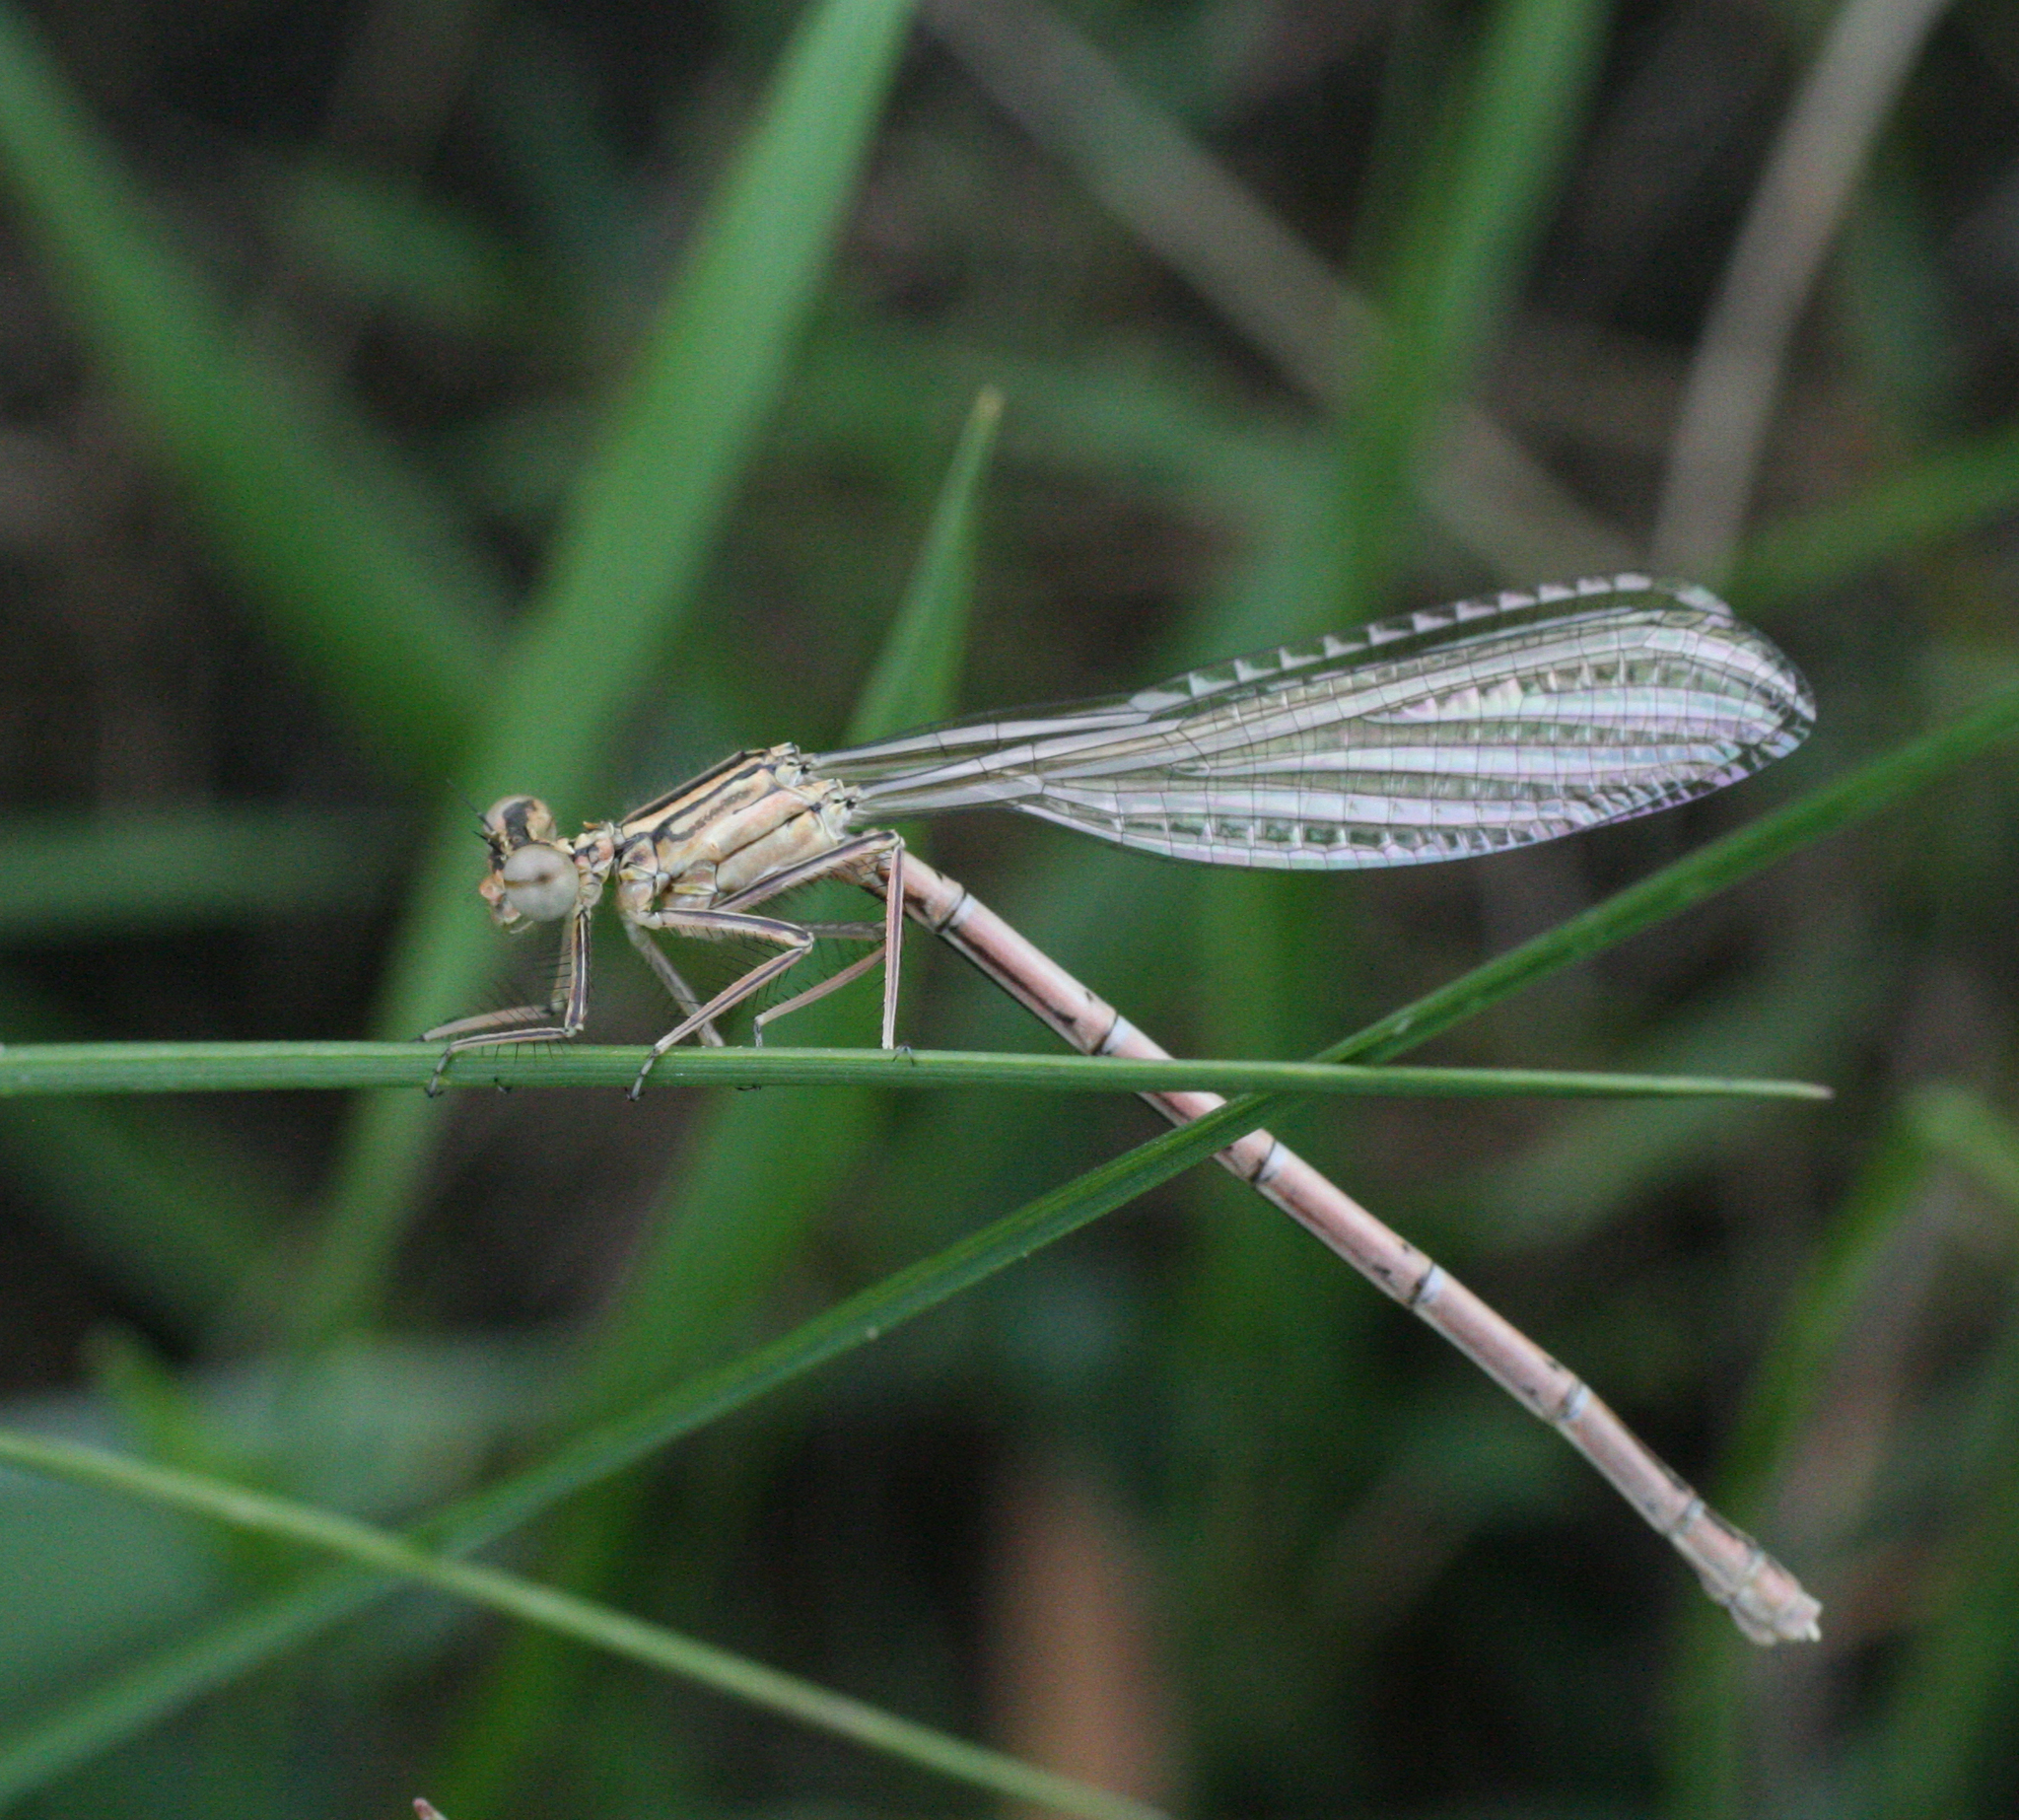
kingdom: Animalia
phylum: Arthropoda
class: Insecta
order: Odonata
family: Platycnemididae
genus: Platycnemis
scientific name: Platycnemis pennipes
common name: White-legged damselfly
